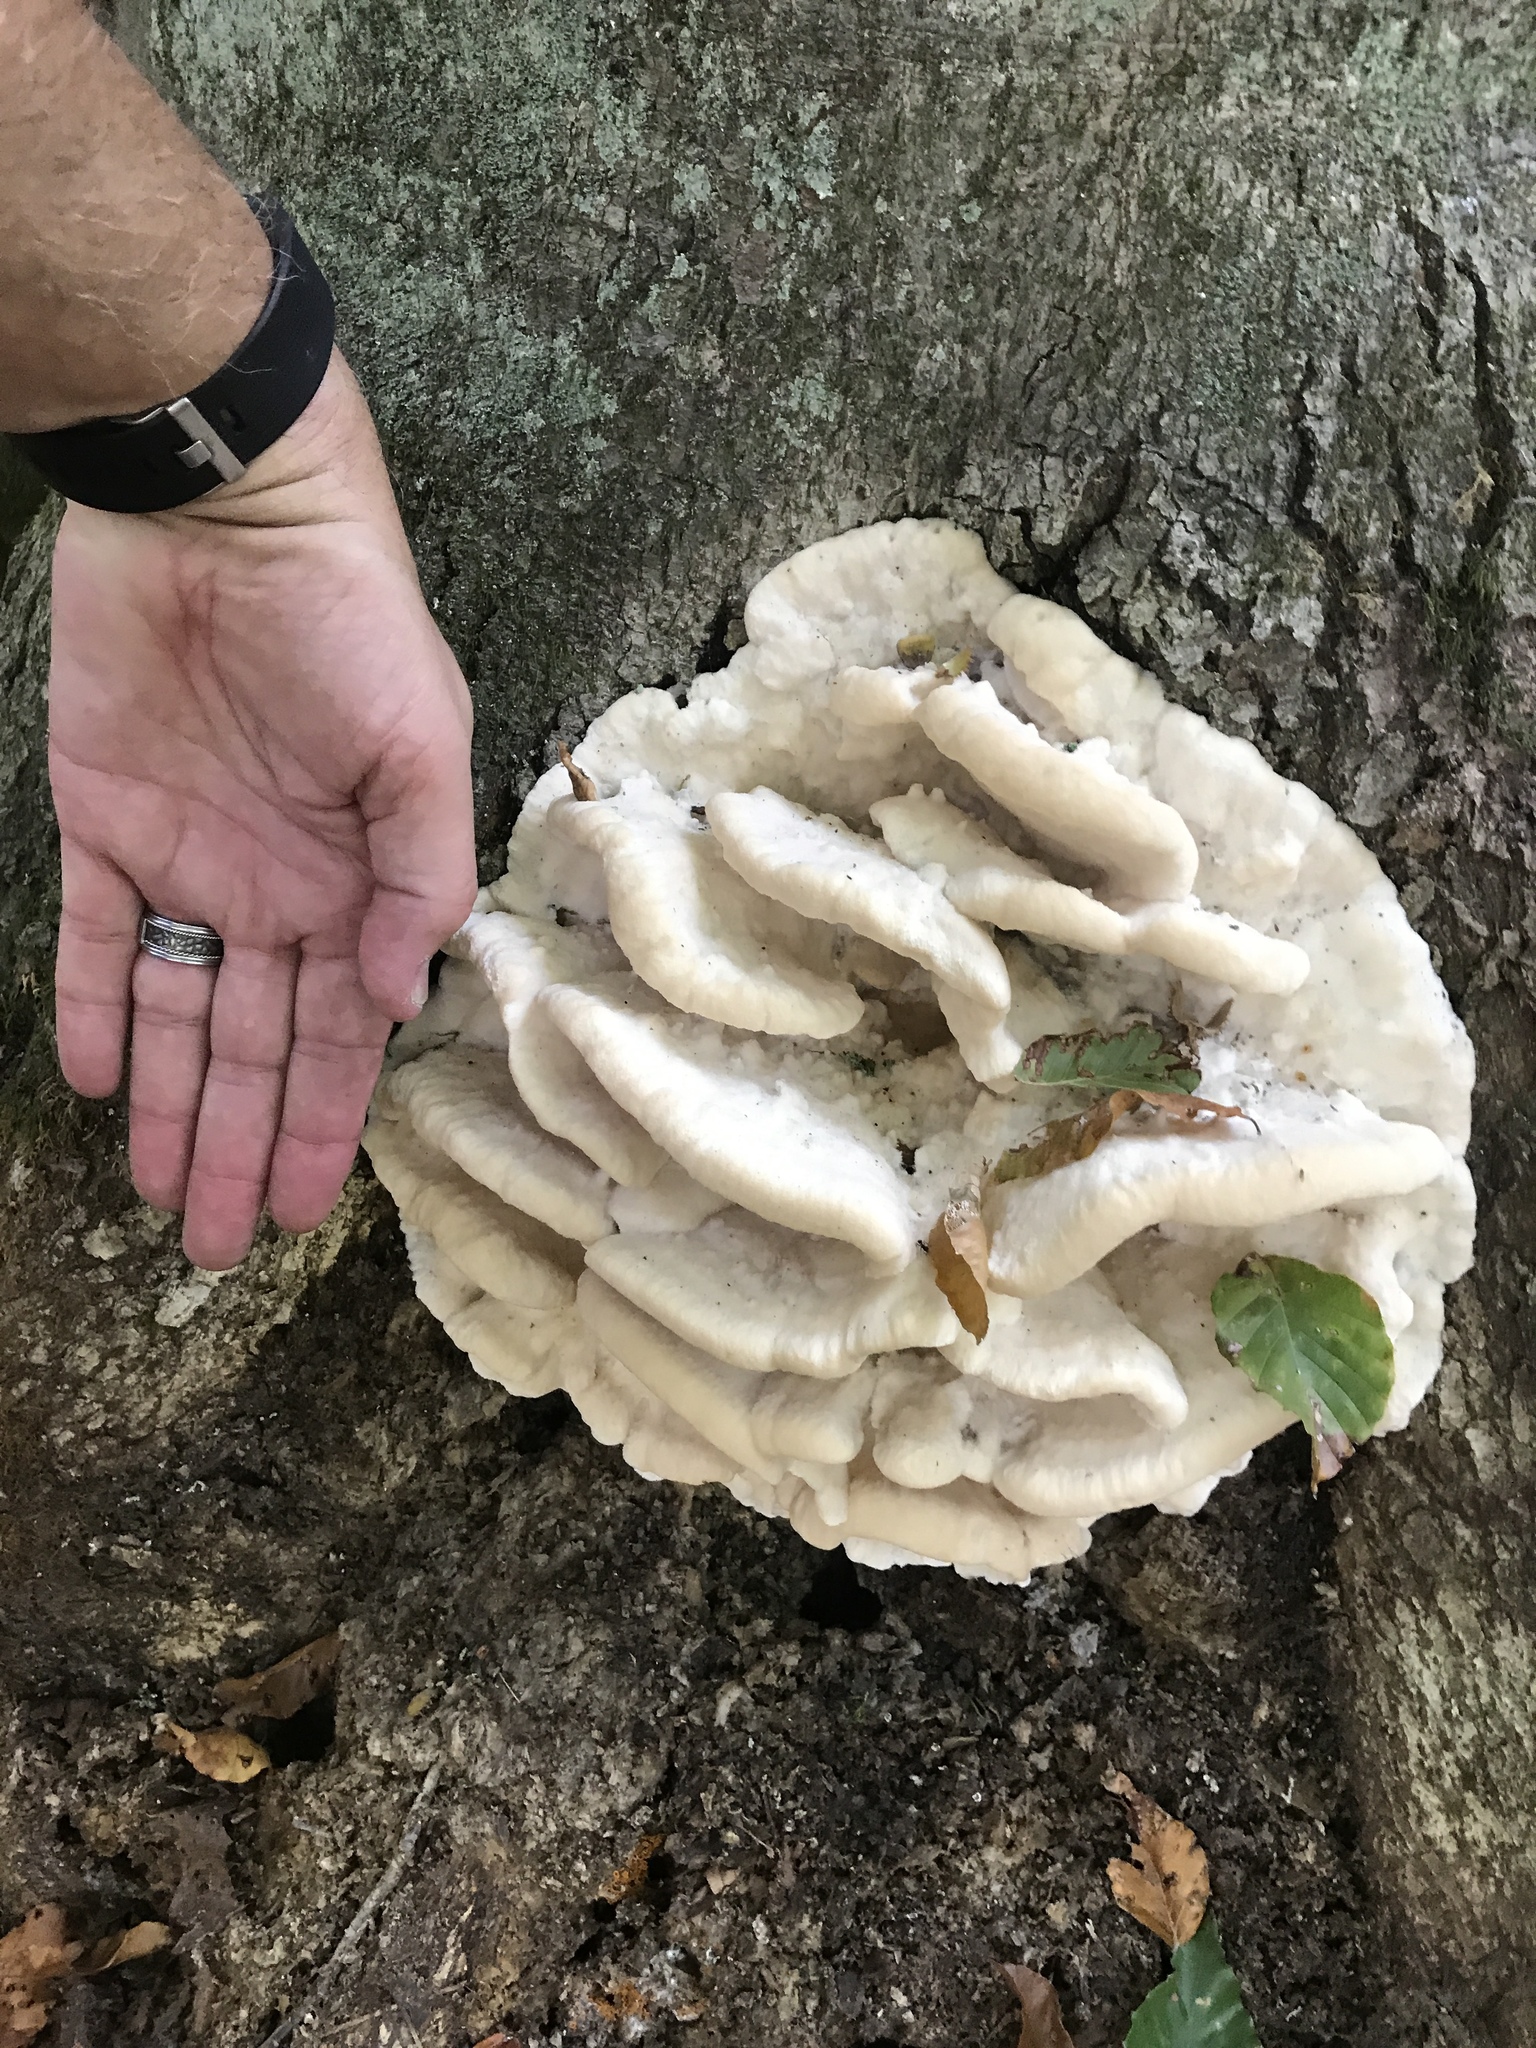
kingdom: Fungi
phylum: Basidiomycota
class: Agaricomycetes
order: Polyporales
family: Meruliaceae
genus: Climacodon
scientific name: Climacodon septentrionalis
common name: Northern tooth
